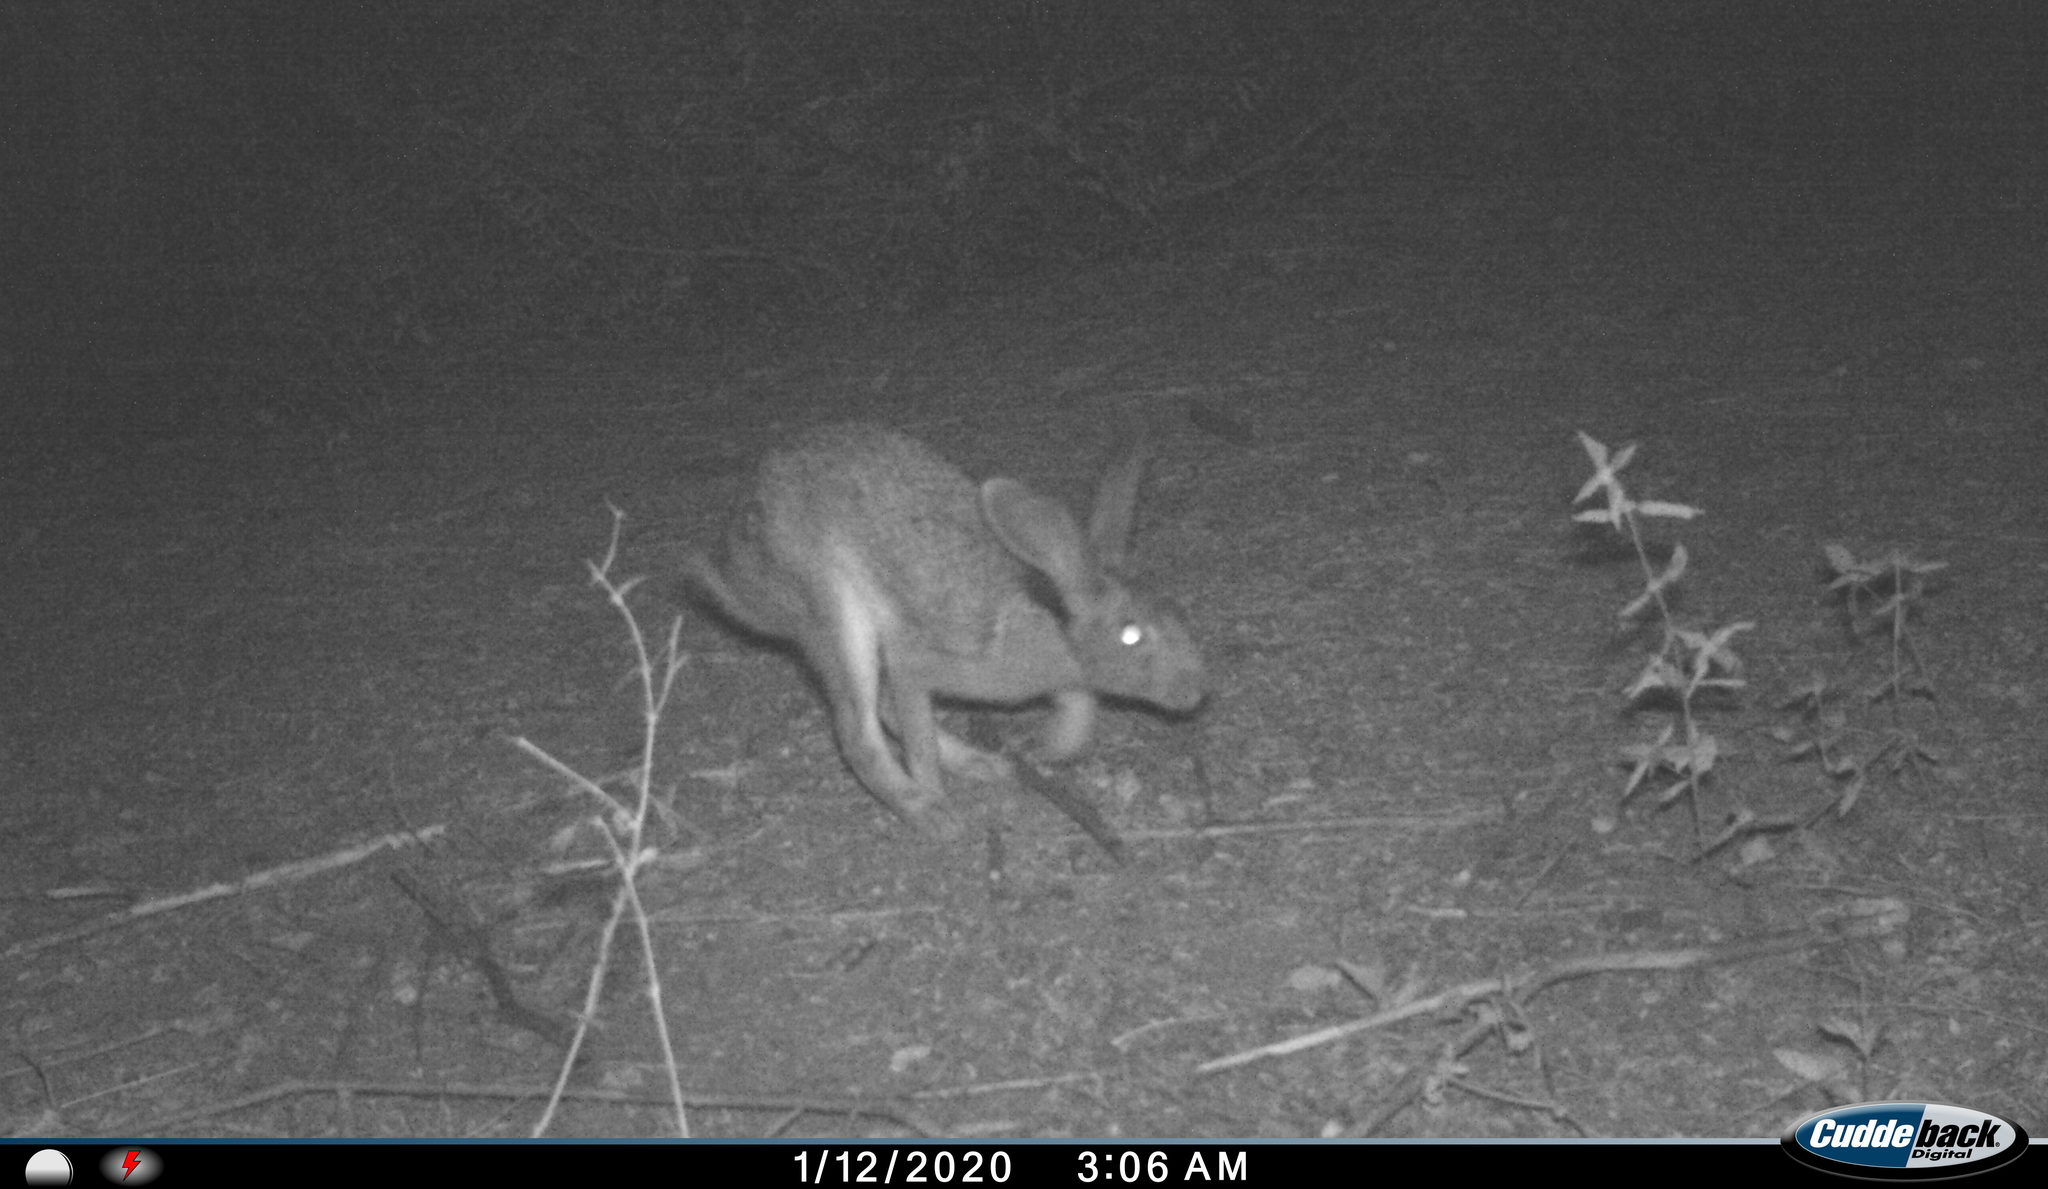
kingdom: Animalia
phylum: Chordata
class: Mammalia
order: Lagomorpha
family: Leporidae
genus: Lepus
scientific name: Lepus nigricollis
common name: Indian hare
